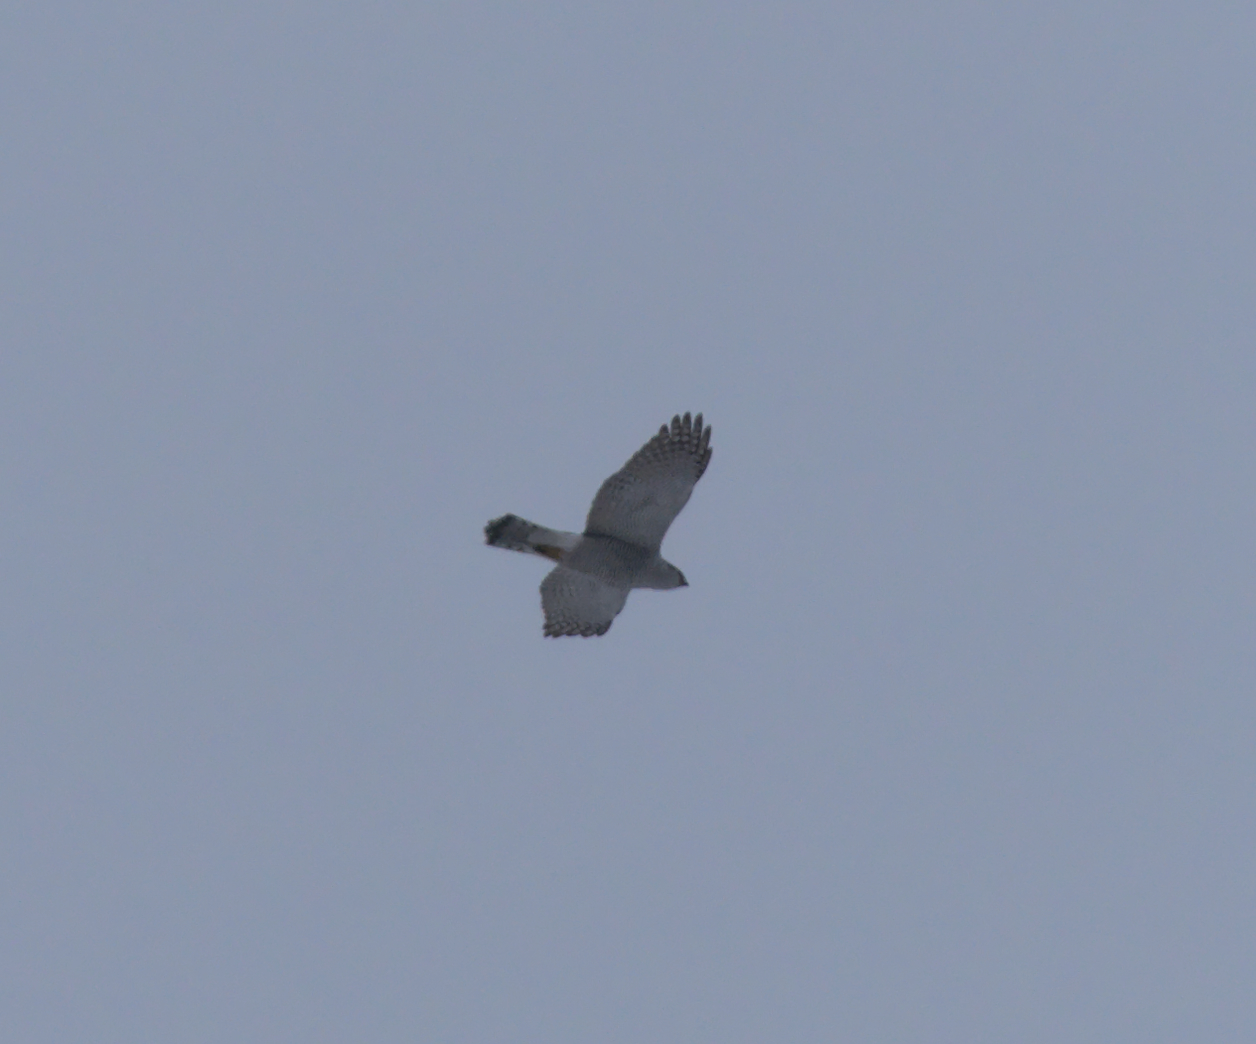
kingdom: Animalia
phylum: Chordata
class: Aves
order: Accipitriformes
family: Accipitridae
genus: Accipiter
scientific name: Accipiter gentilis
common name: Northern goshawk
